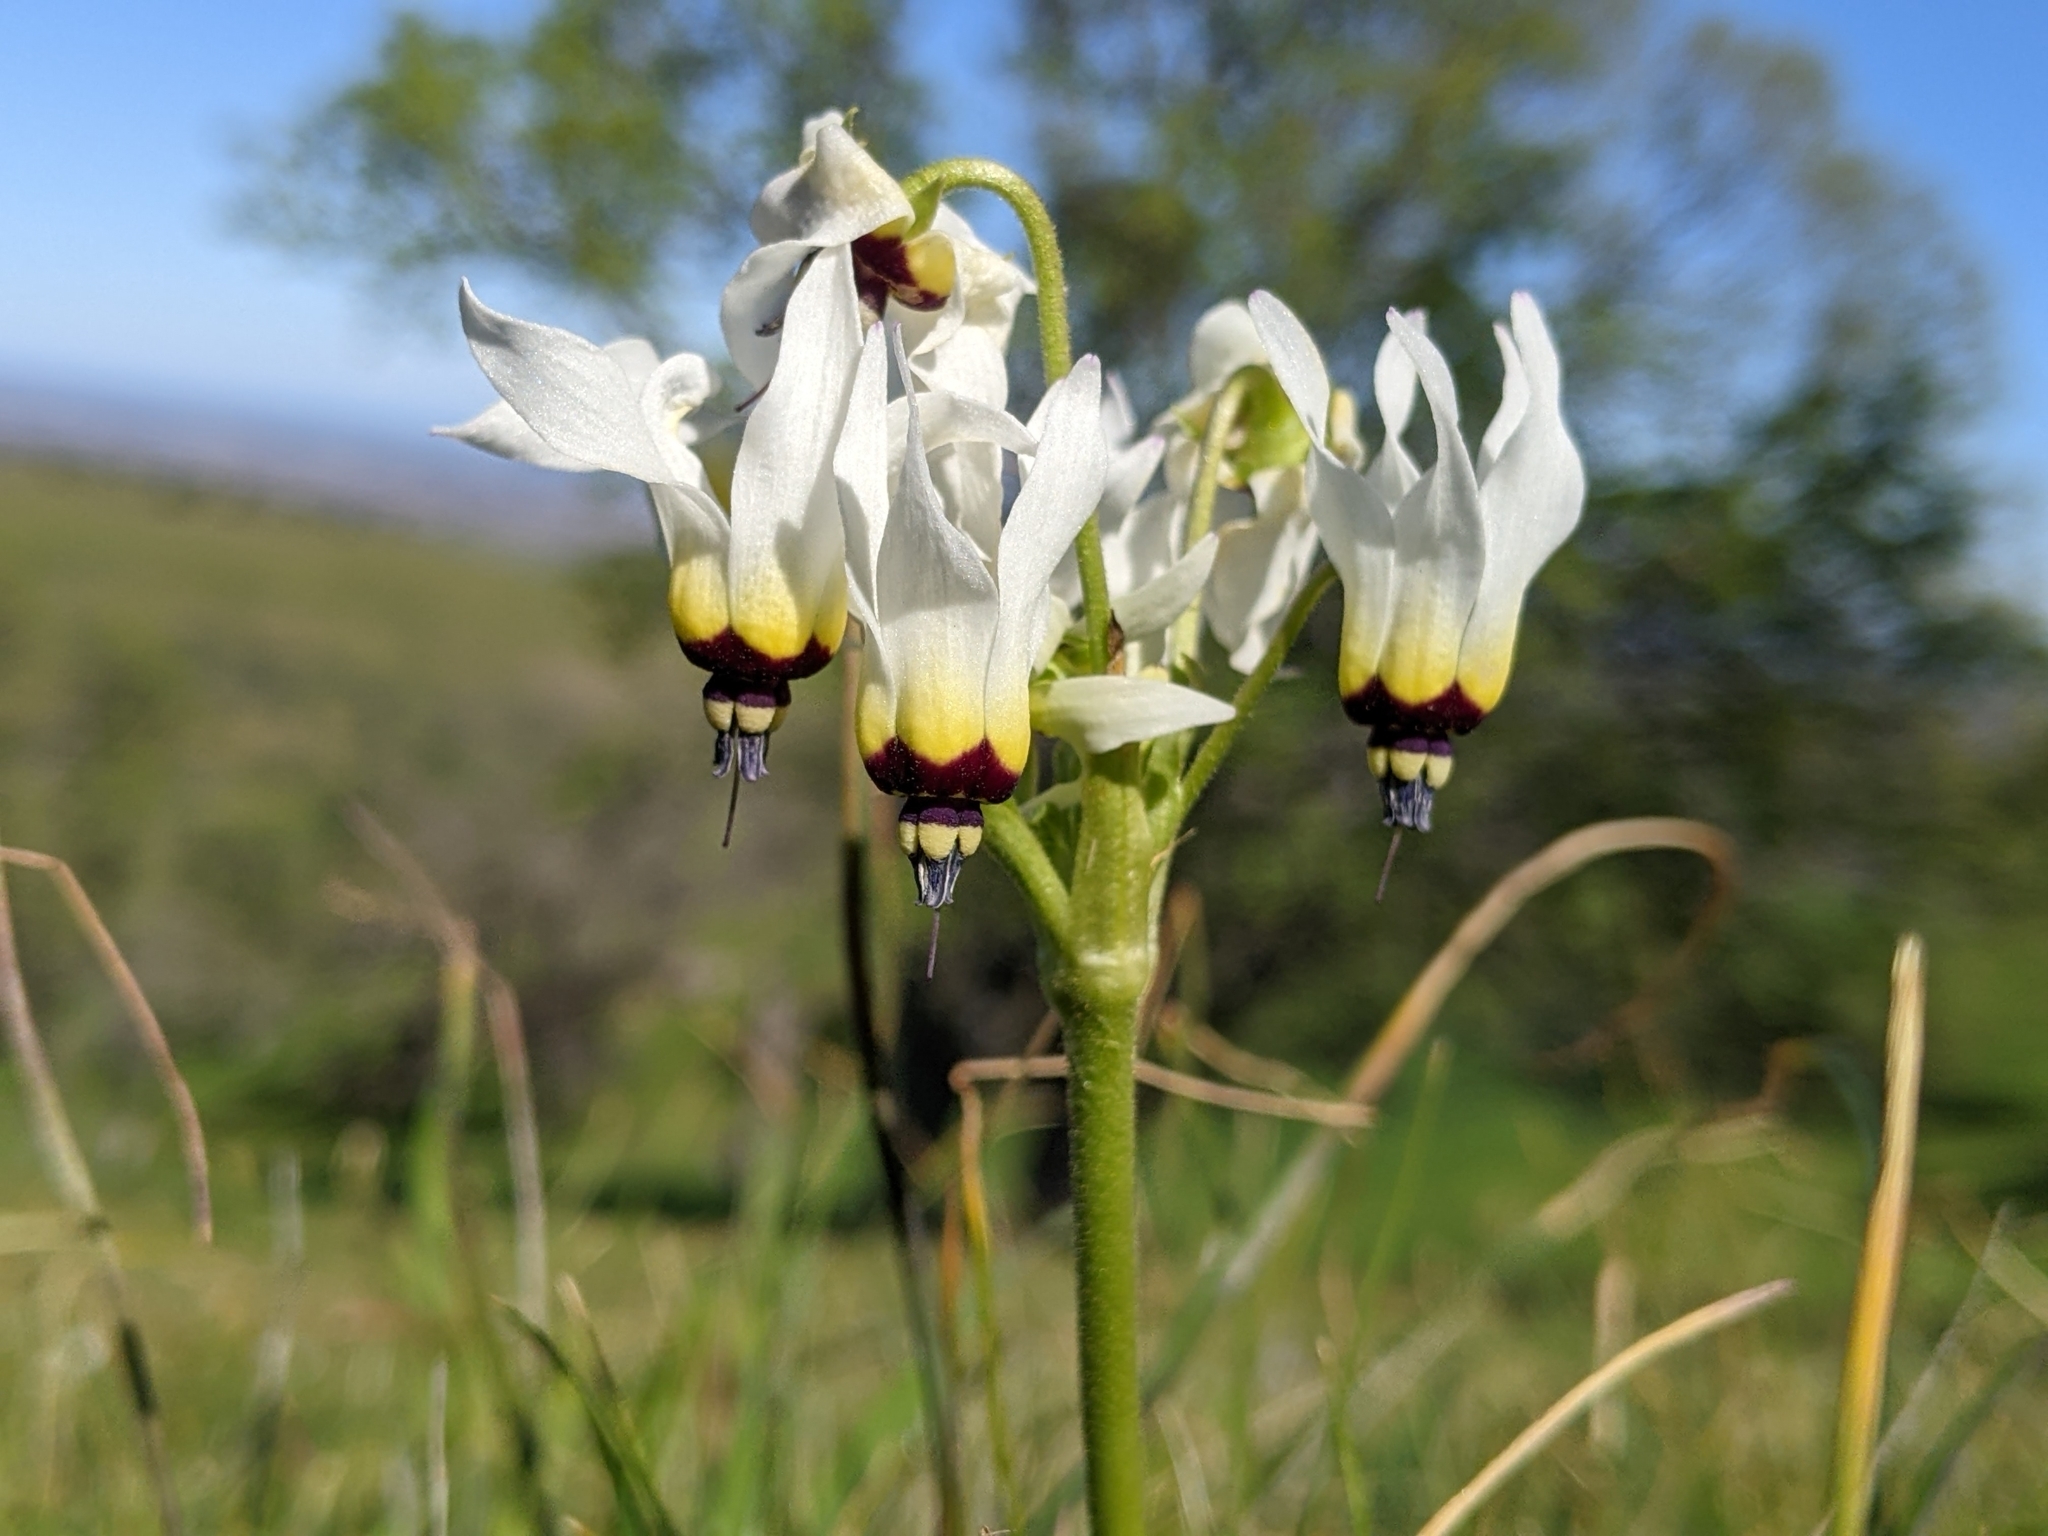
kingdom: Plantae
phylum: Tracheophyta
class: Magnoliopsida
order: Ericales
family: Primulaceae
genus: Dodecatheon
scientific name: Dodecatheon clevelandii
